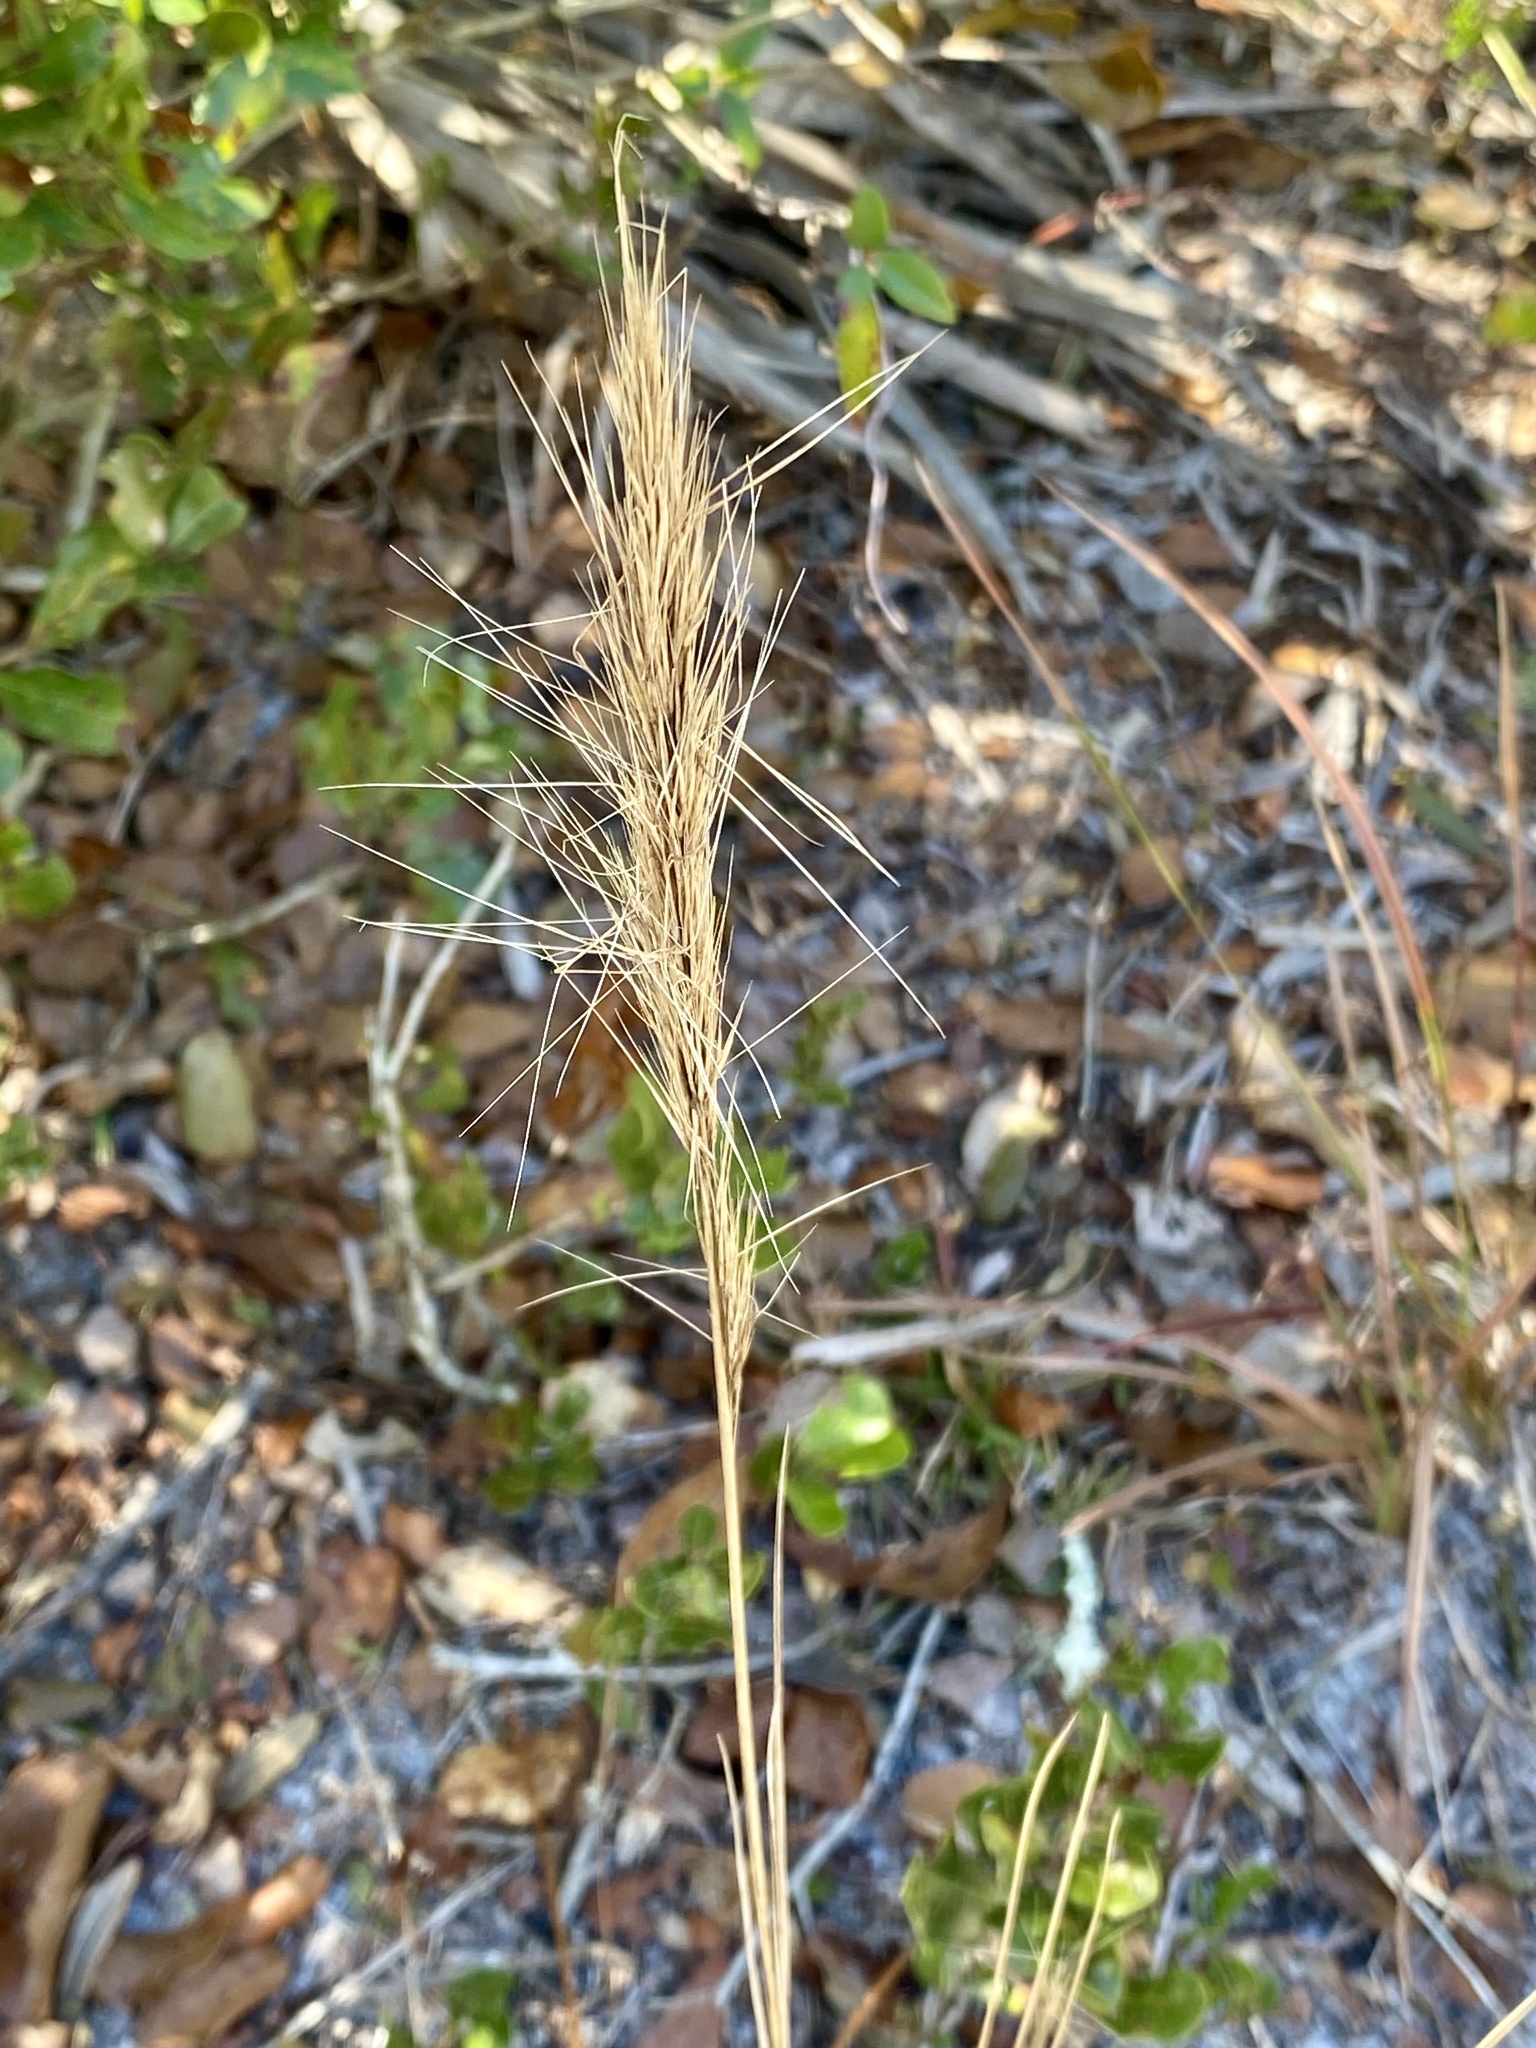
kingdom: Plantae
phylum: Tracheophyta
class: Liliopsida
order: Poales
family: Poaceae
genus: Aristida
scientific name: Aristida spiciformis
